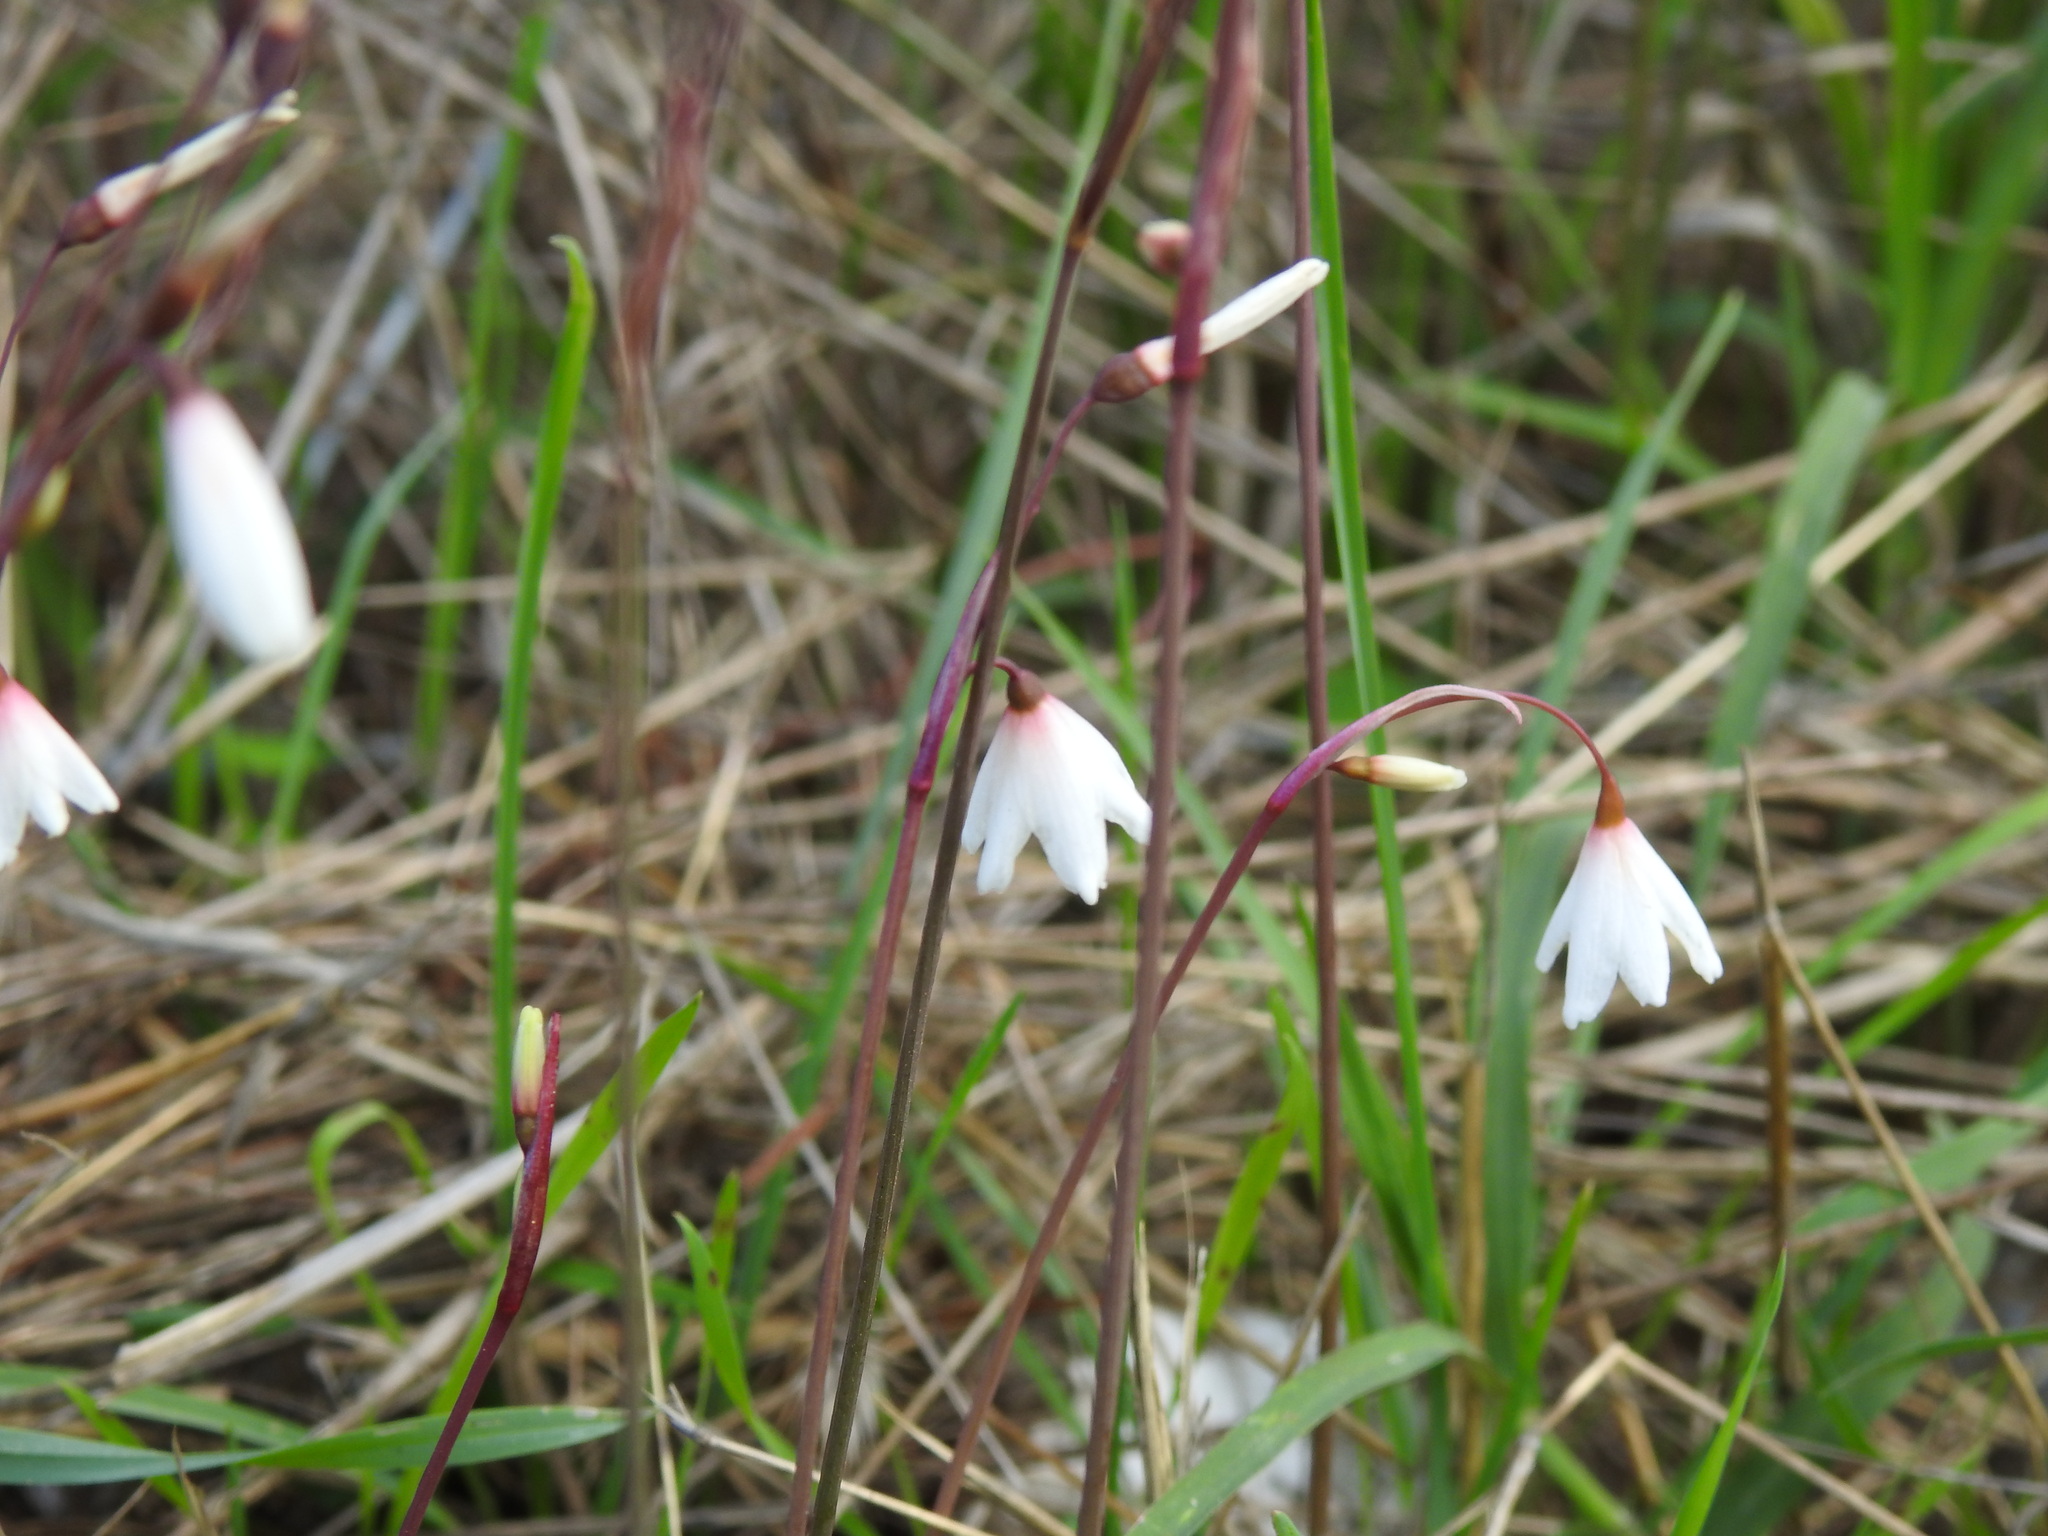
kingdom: Plantae
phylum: Tracheophyta
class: Liliopsida
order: Asparagales
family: Amaryllidaceae
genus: Acis
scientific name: Acis autumnalis
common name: Autumn snowflake
